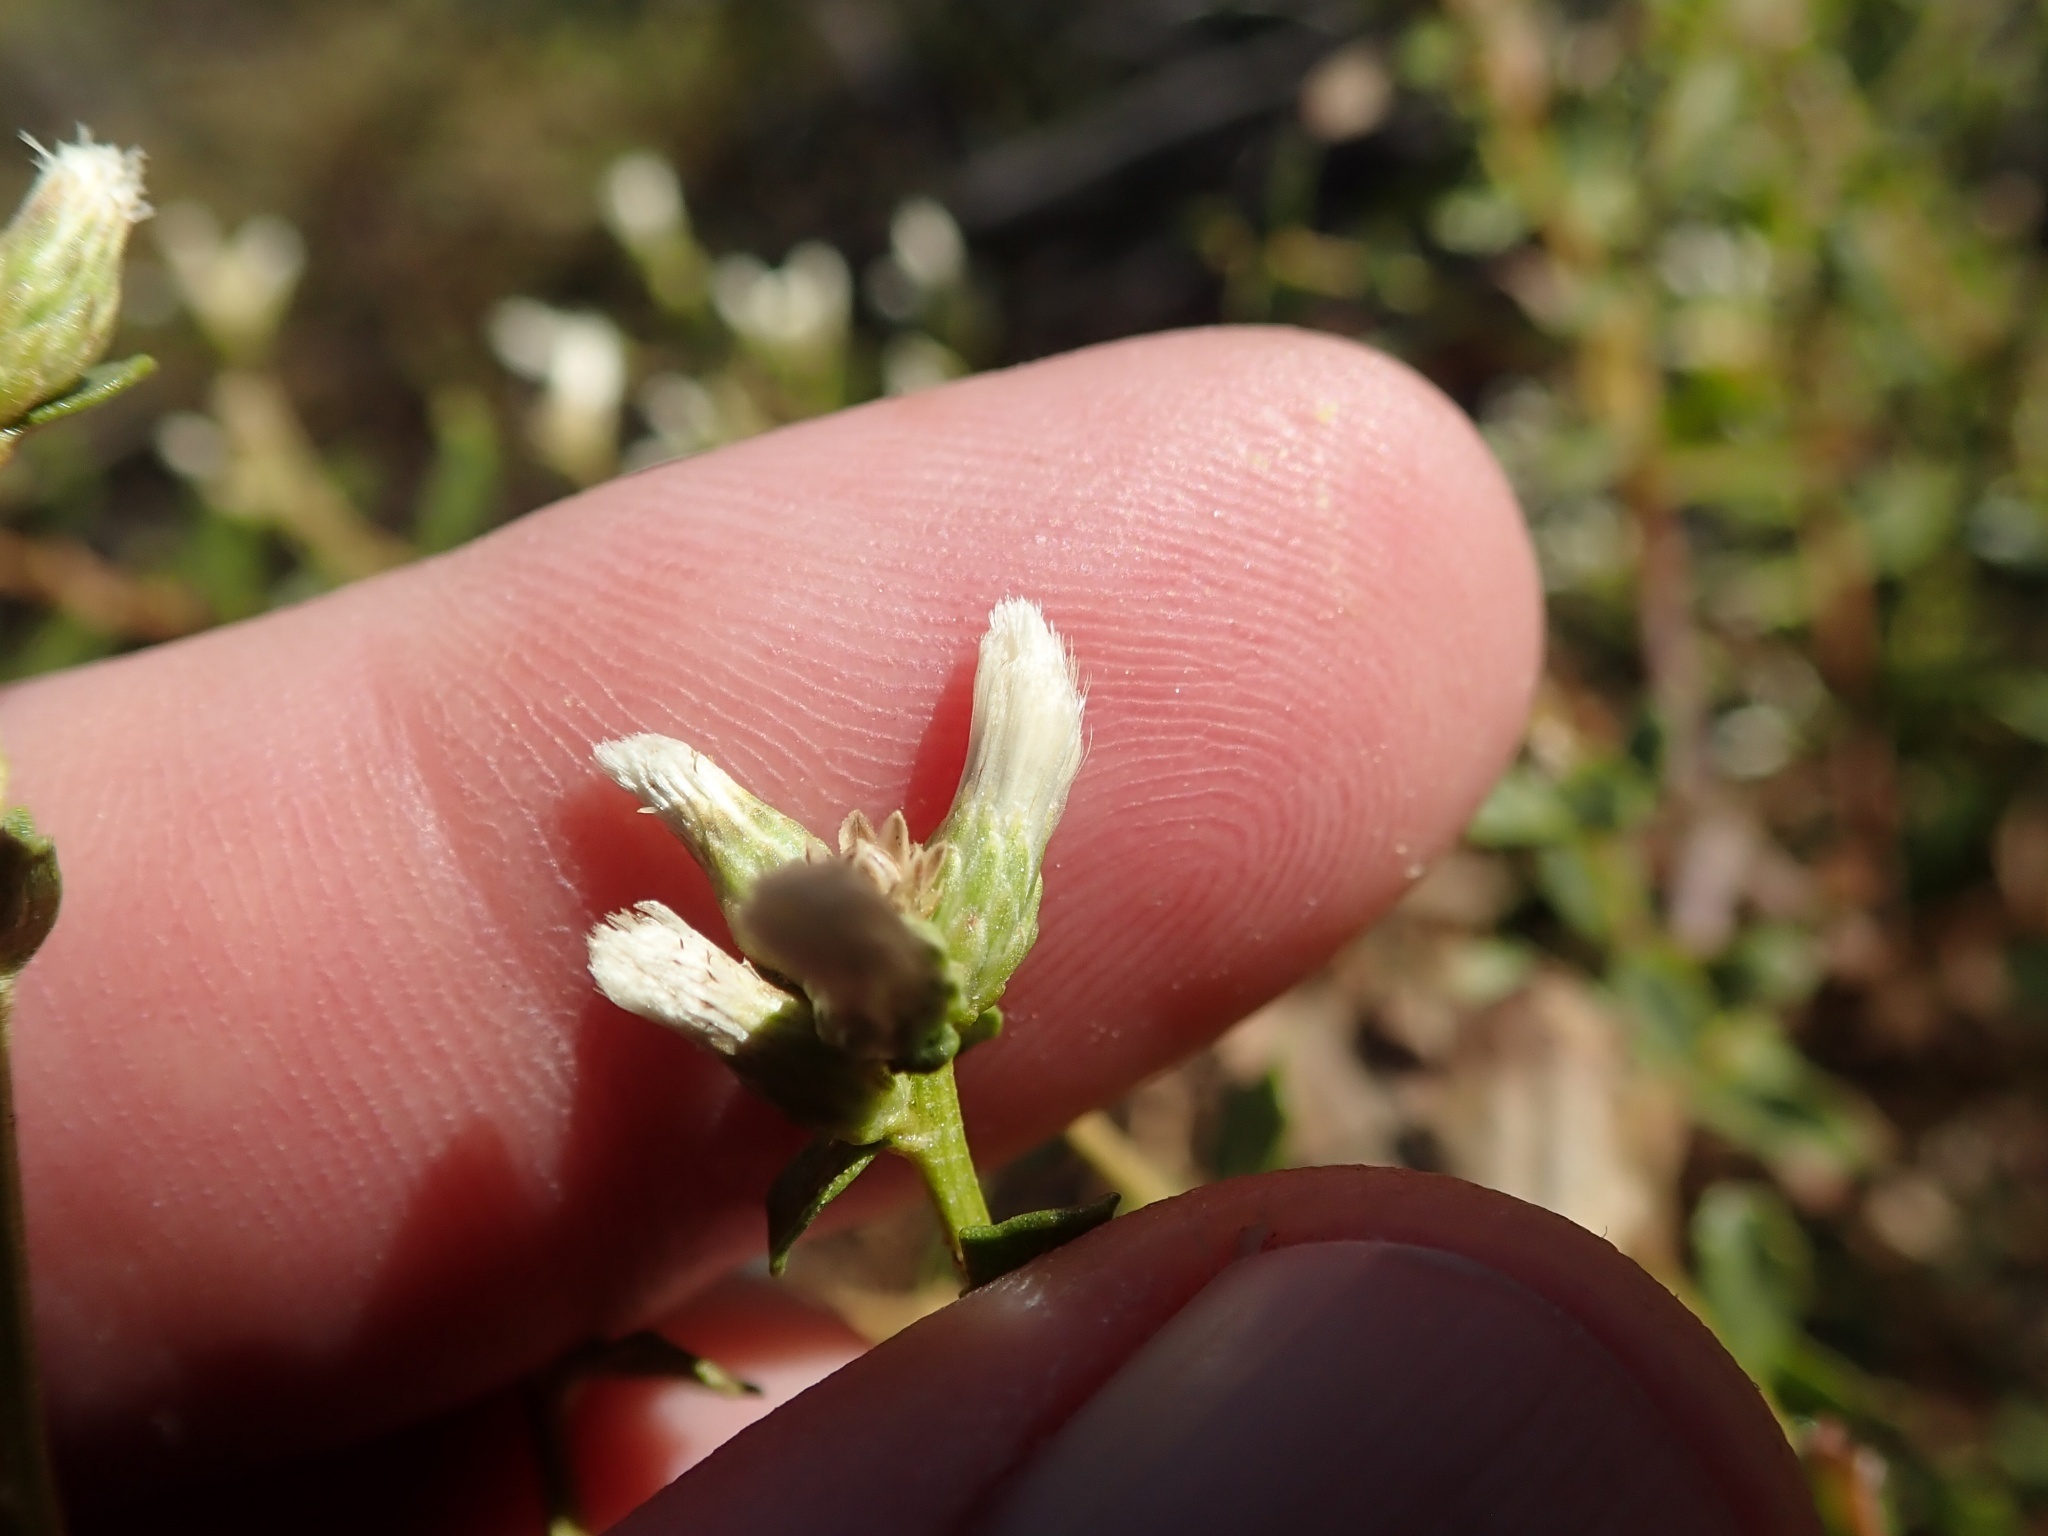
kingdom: Plantae
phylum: Tracheophyta
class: Magnoliopsida
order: Asterales
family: Asteraceae
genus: Baccharis
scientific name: Baccharis pilularis
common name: Coyotebrush
